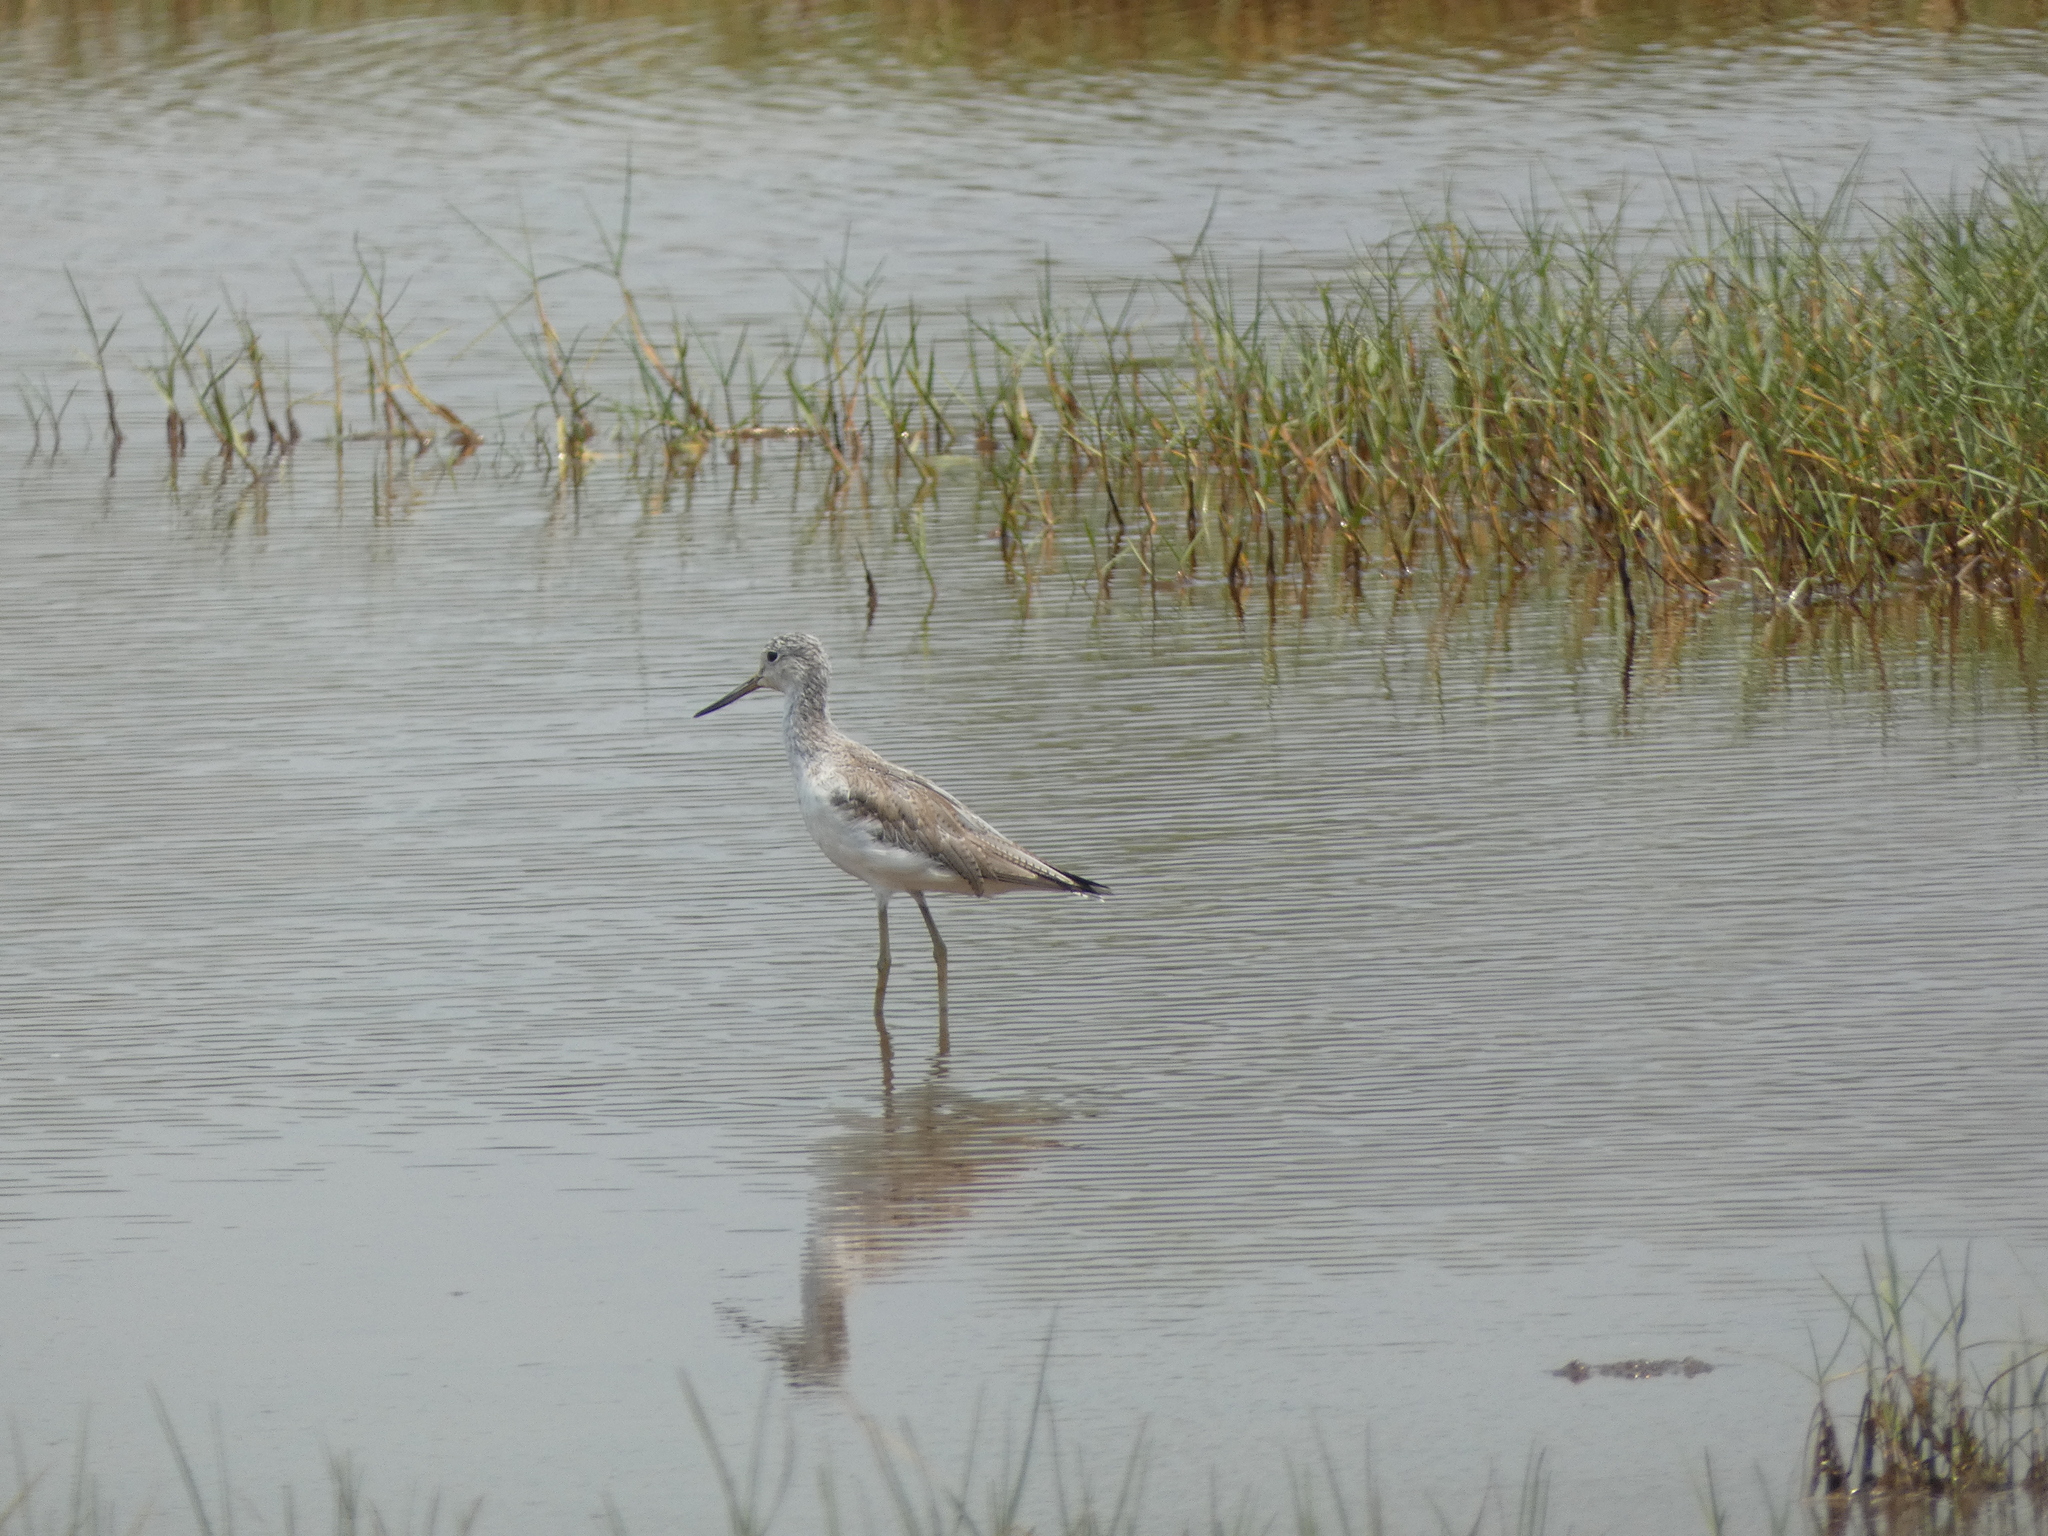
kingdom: Animalia
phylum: Chordata
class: Aves
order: Charadriiformes
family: Scolopacidae
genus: Tringa
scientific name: Tringa nebularia
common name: Common greenshank
